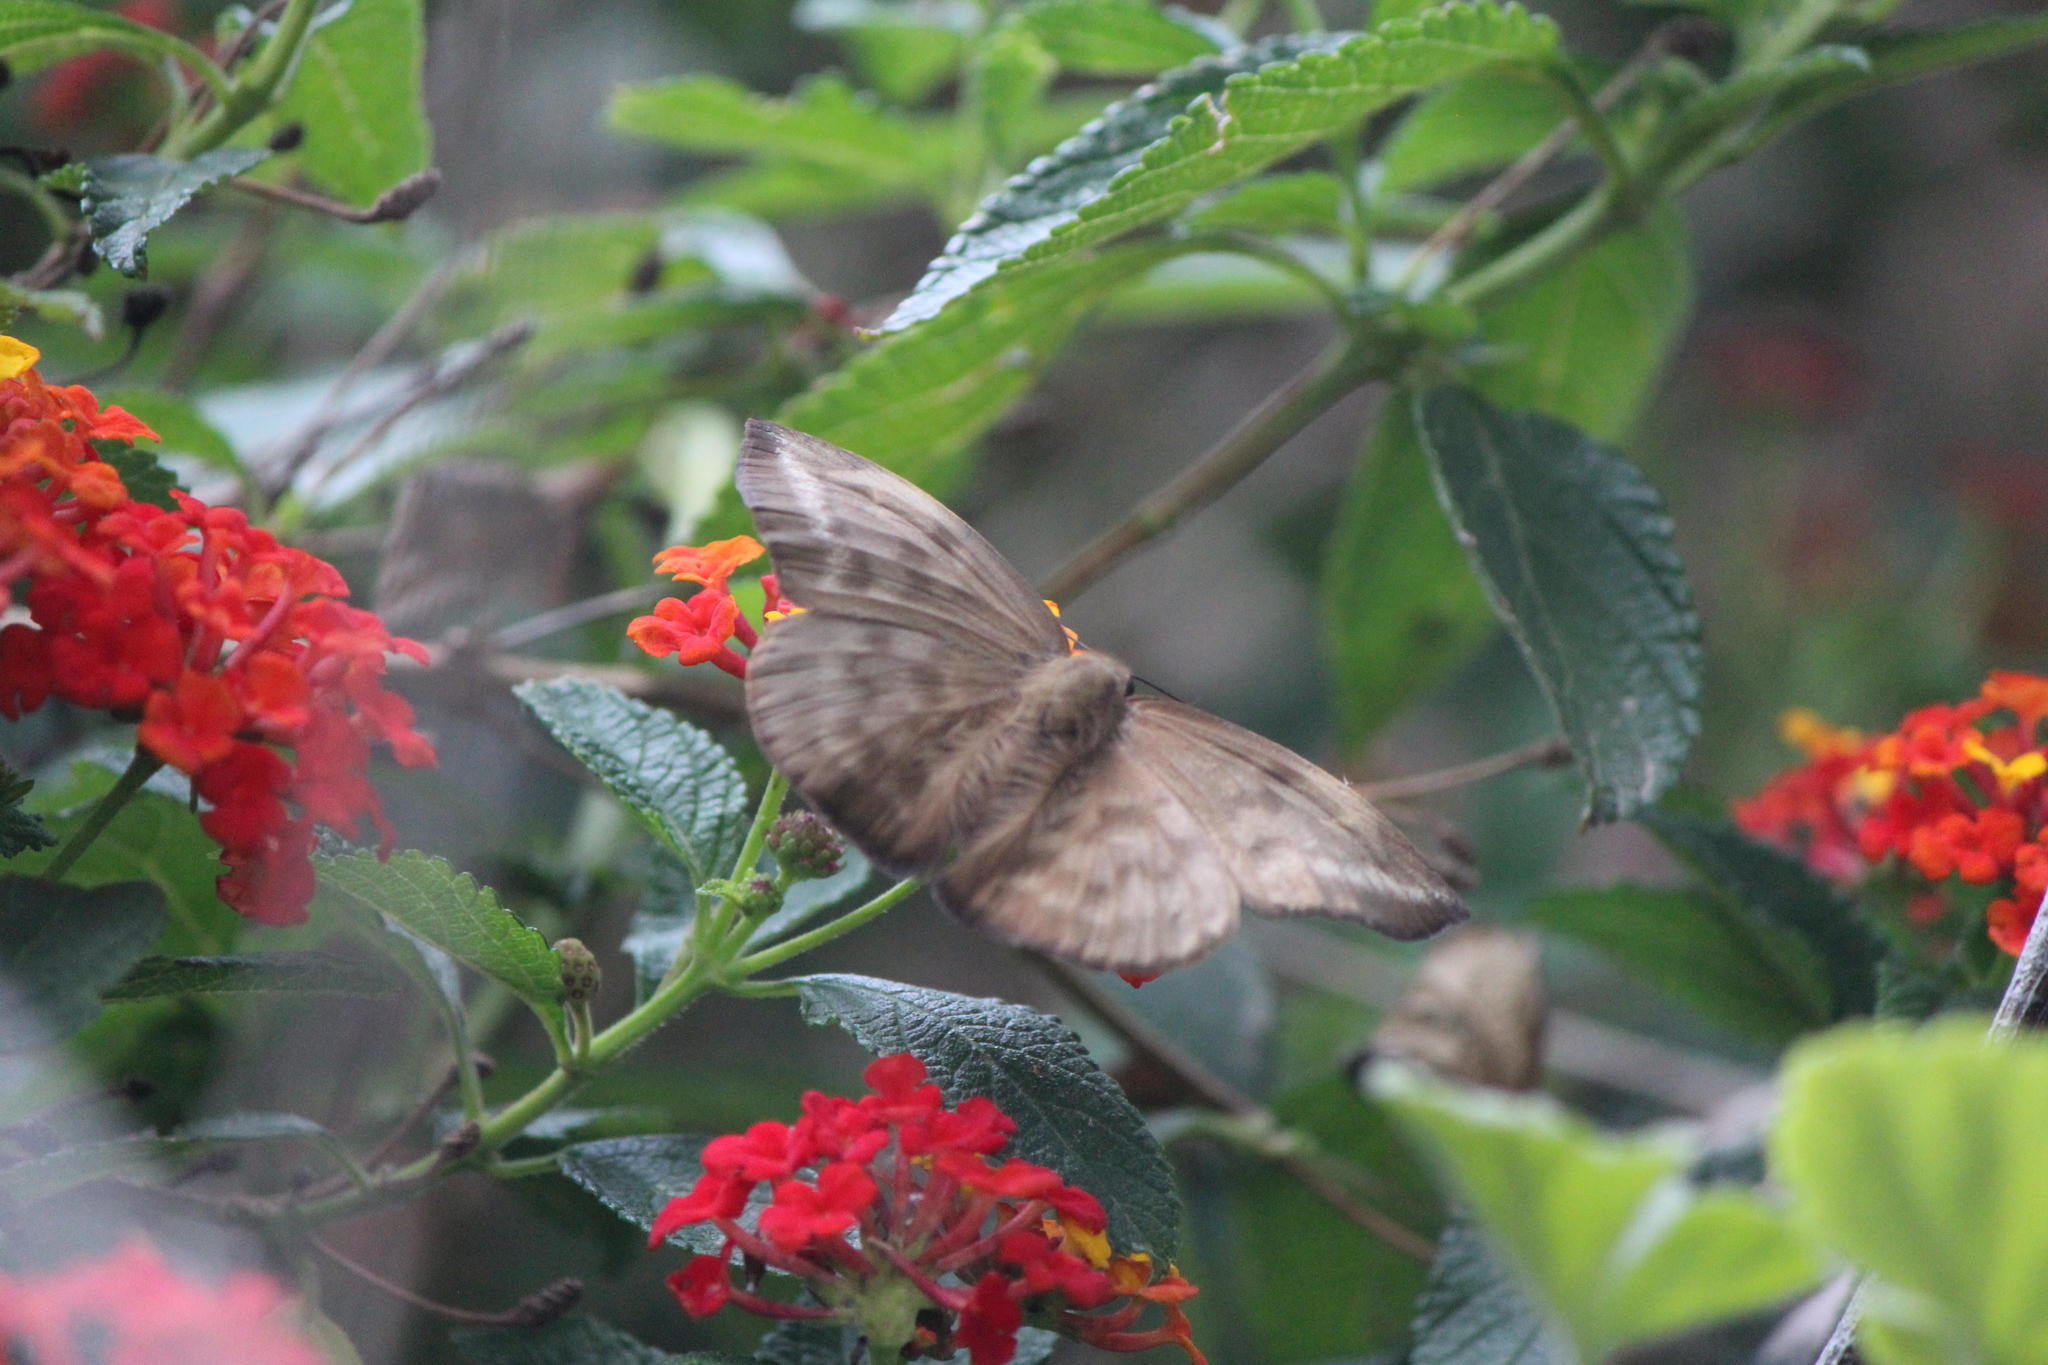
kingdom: Animalia
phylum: Arthropoda
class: Insecta
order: Lepidoptera
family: Hesperiidae
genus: Achlyodes
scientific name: Achlyodes pallida
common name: Pale sicklewing
